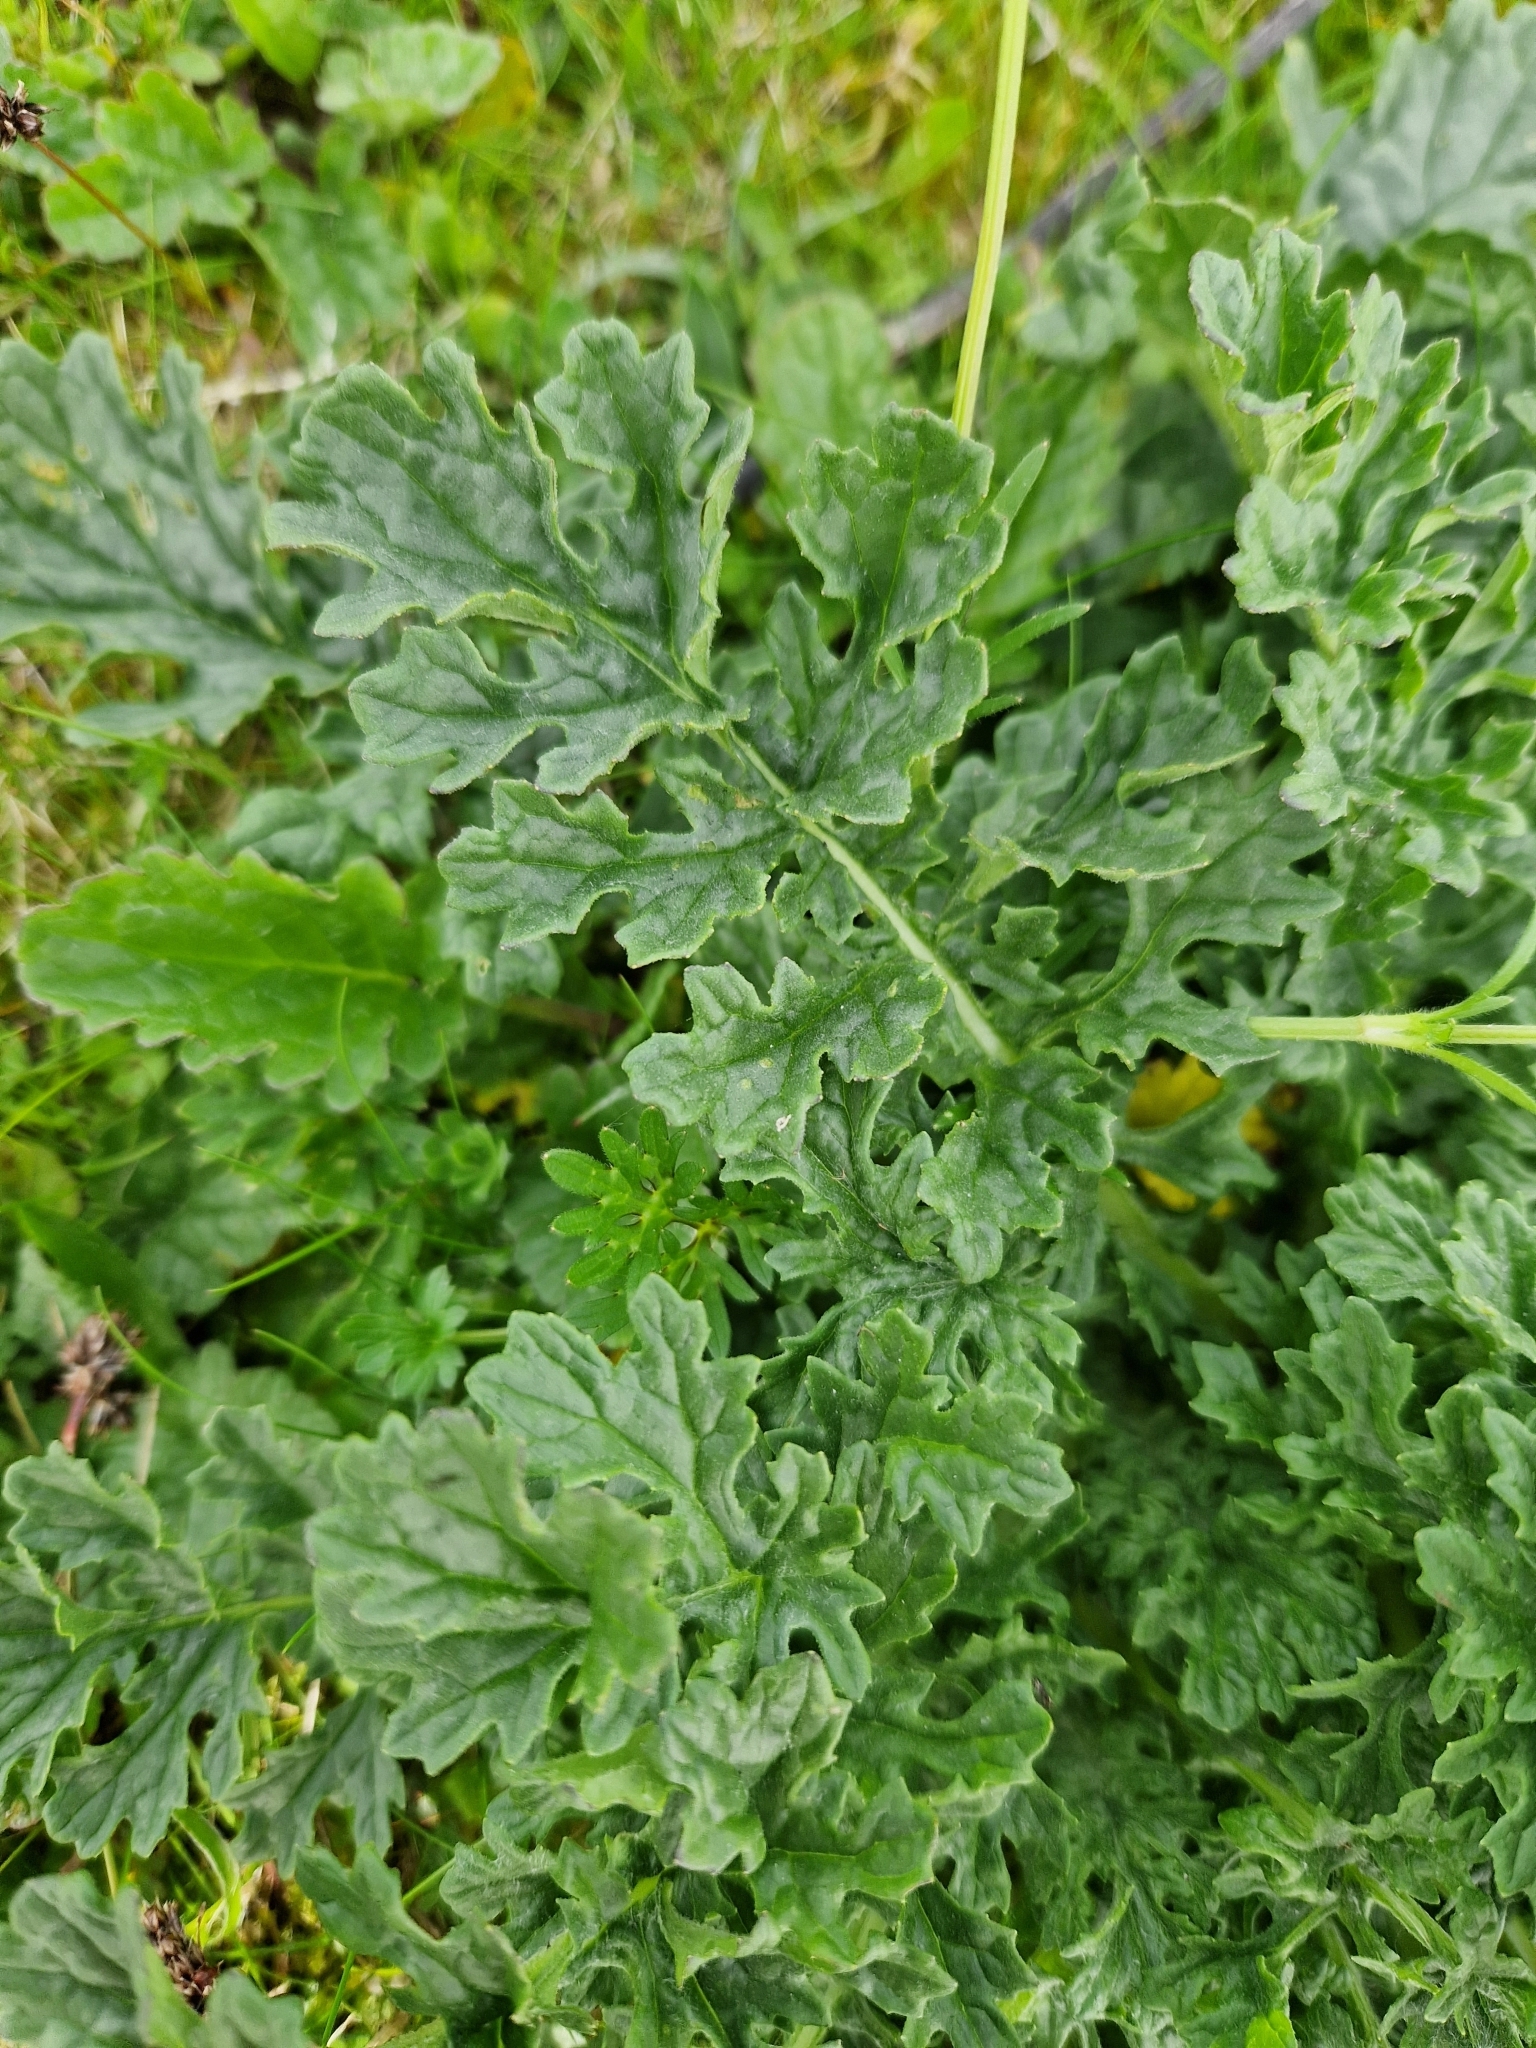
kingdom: Plantae
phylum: Tracheophyta
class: Magnoliopsida
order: Asterales
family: Asteraceae
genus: Jacobaea
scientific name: Jacobaea vulgaris
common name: Stinking willie
